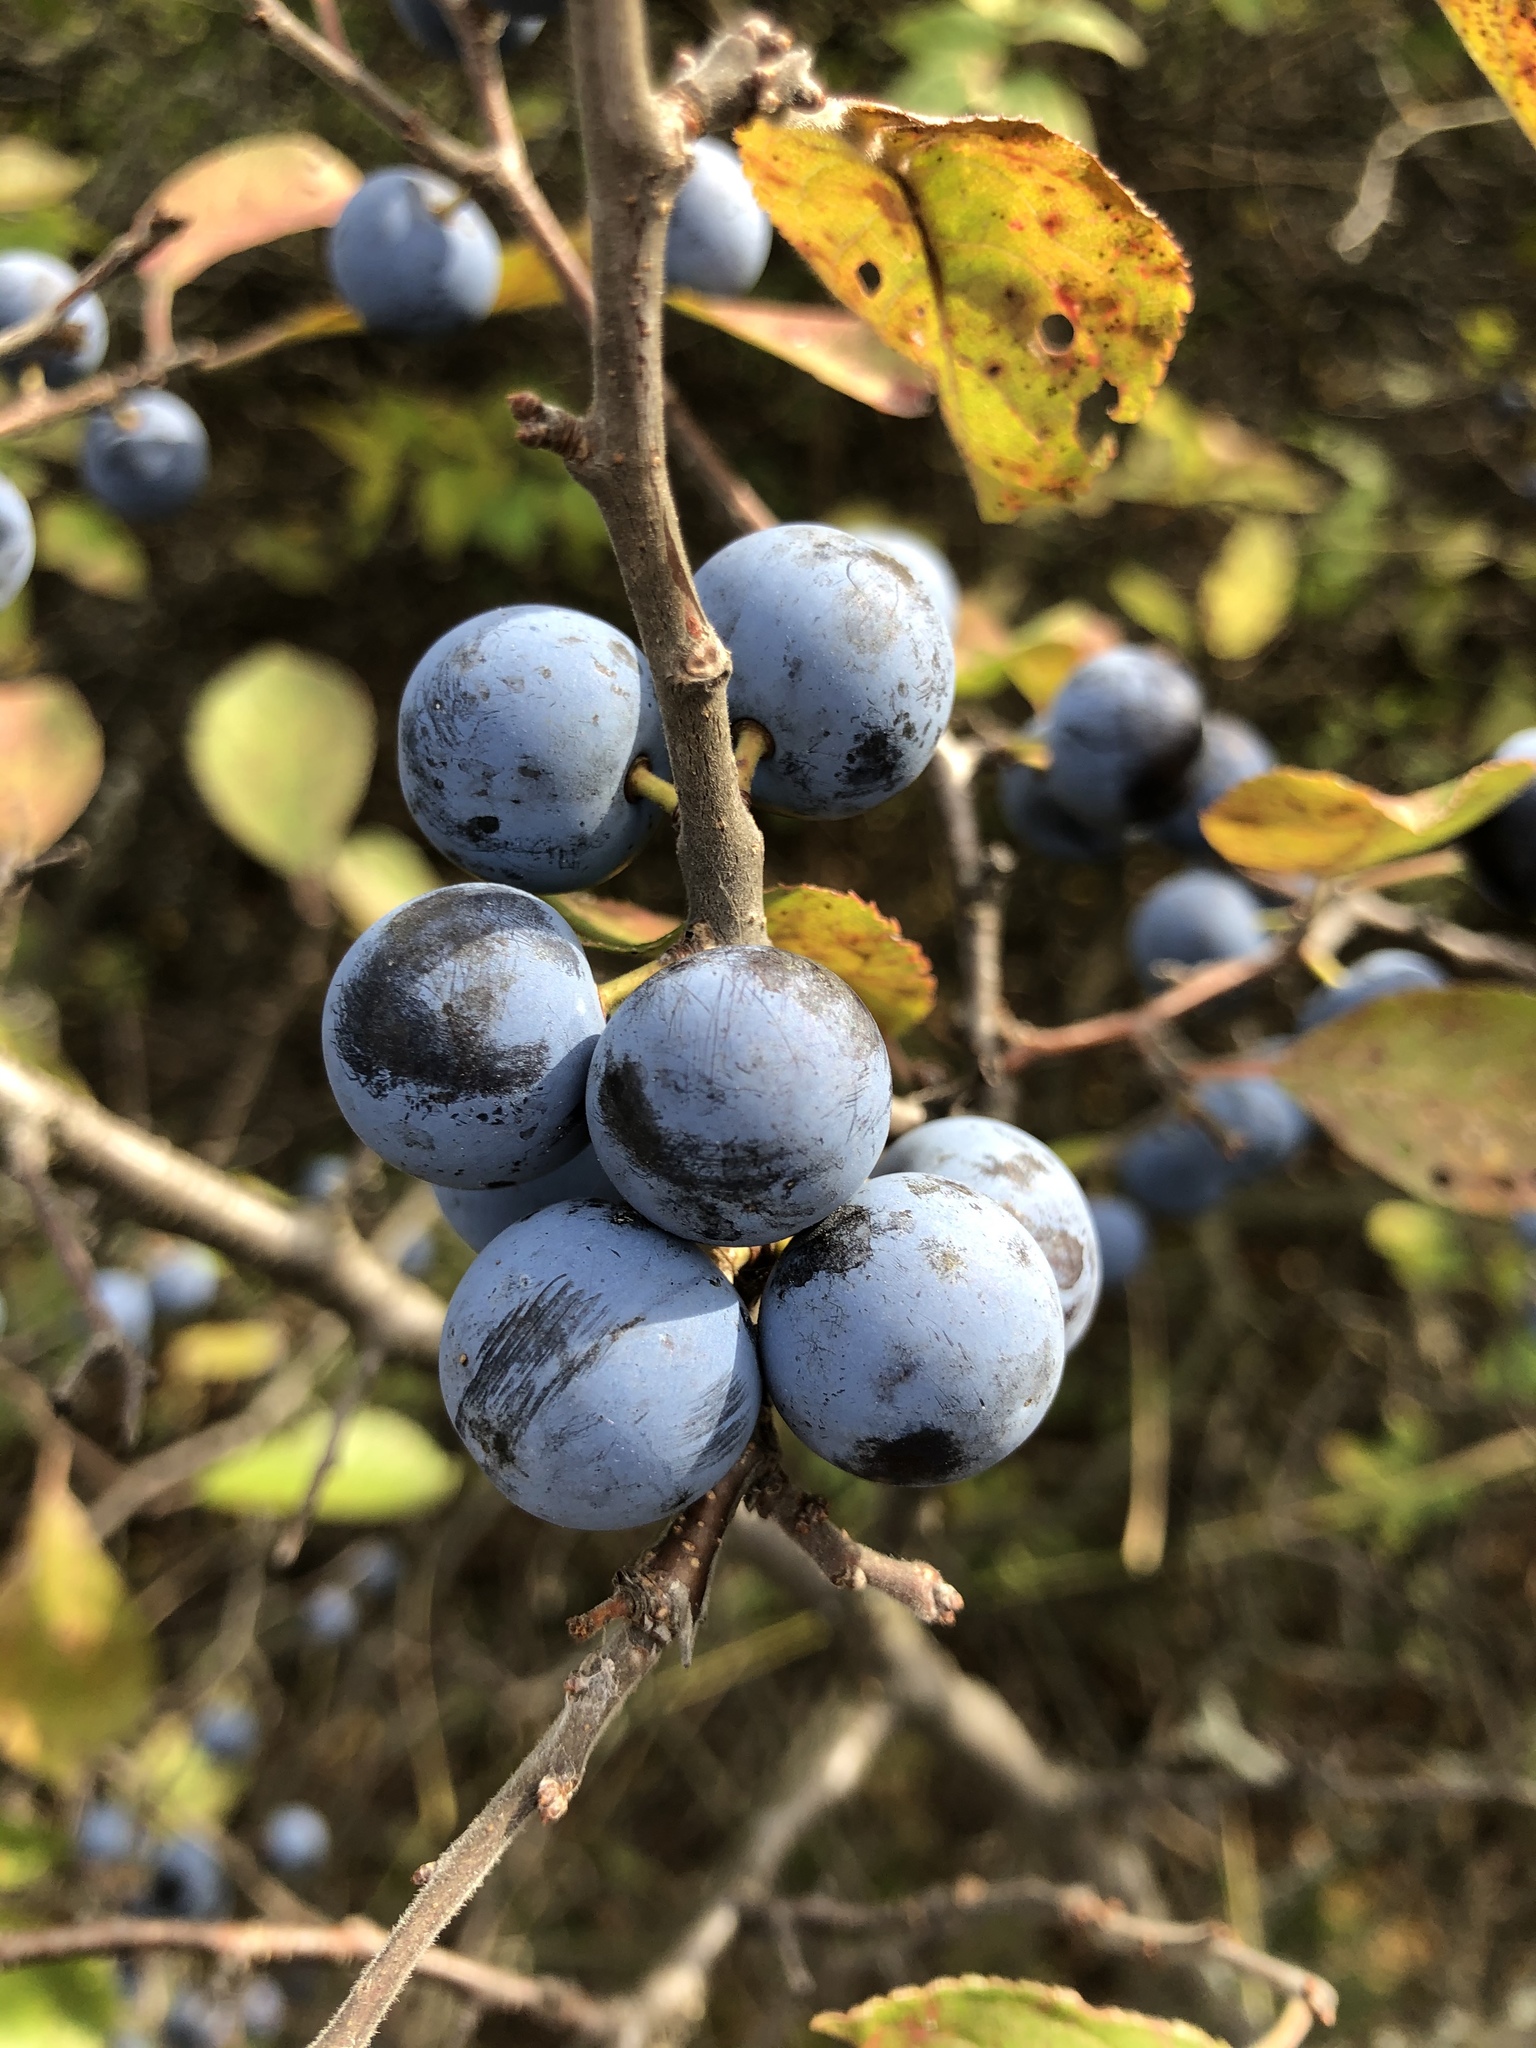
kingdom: Plantae
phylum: Tracheophyta
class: Magnoliopsida
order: Rosales
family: Rosaceae
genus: Prunus
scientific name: Prunus spinosa
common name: Blackthorn
